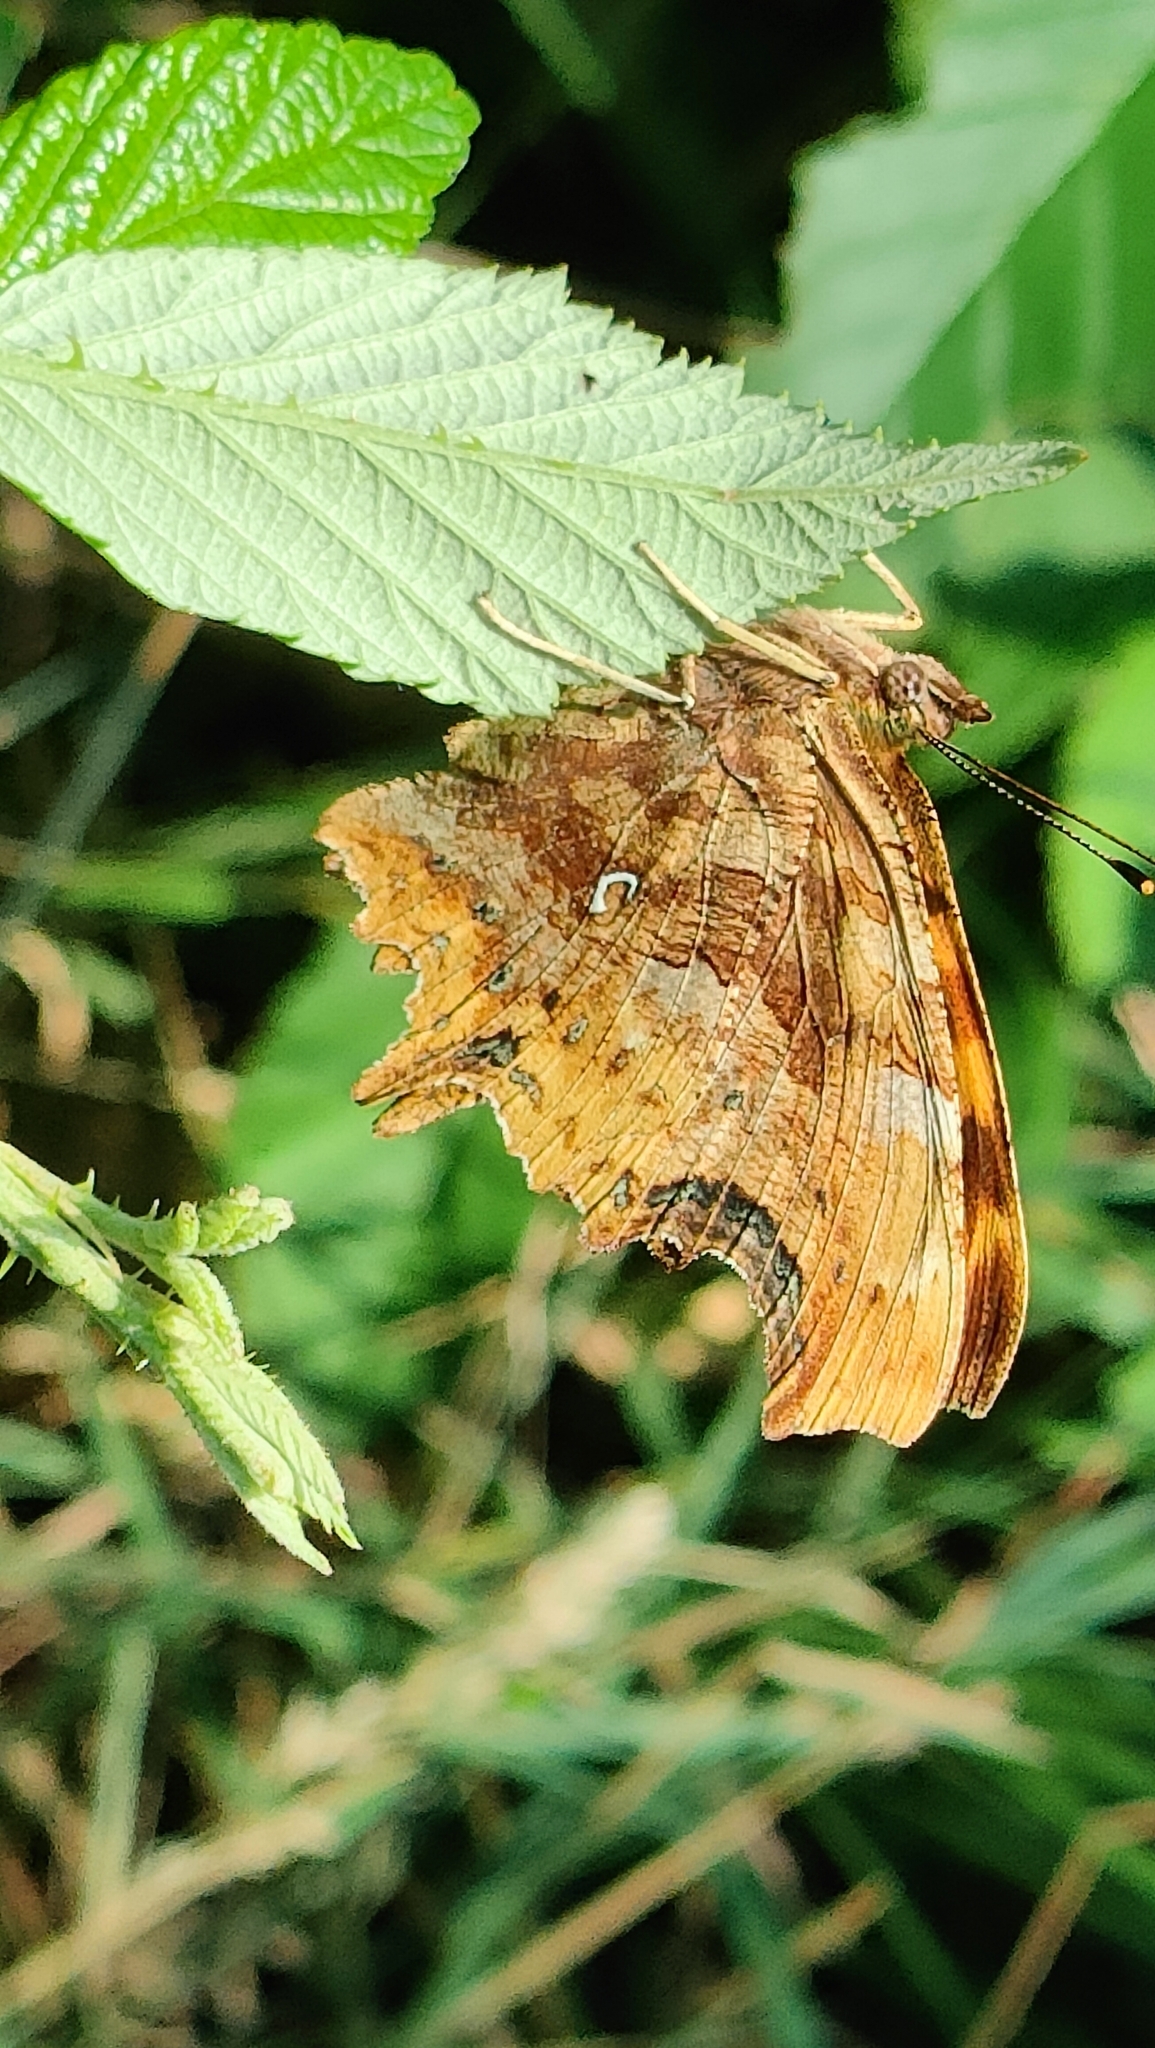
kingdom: Animalia
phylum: Arthropoda
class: Insecta
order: Lepidoptera
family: Nymphalidae
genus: Polygonia
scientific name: Polygonia c-album
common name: Comma
